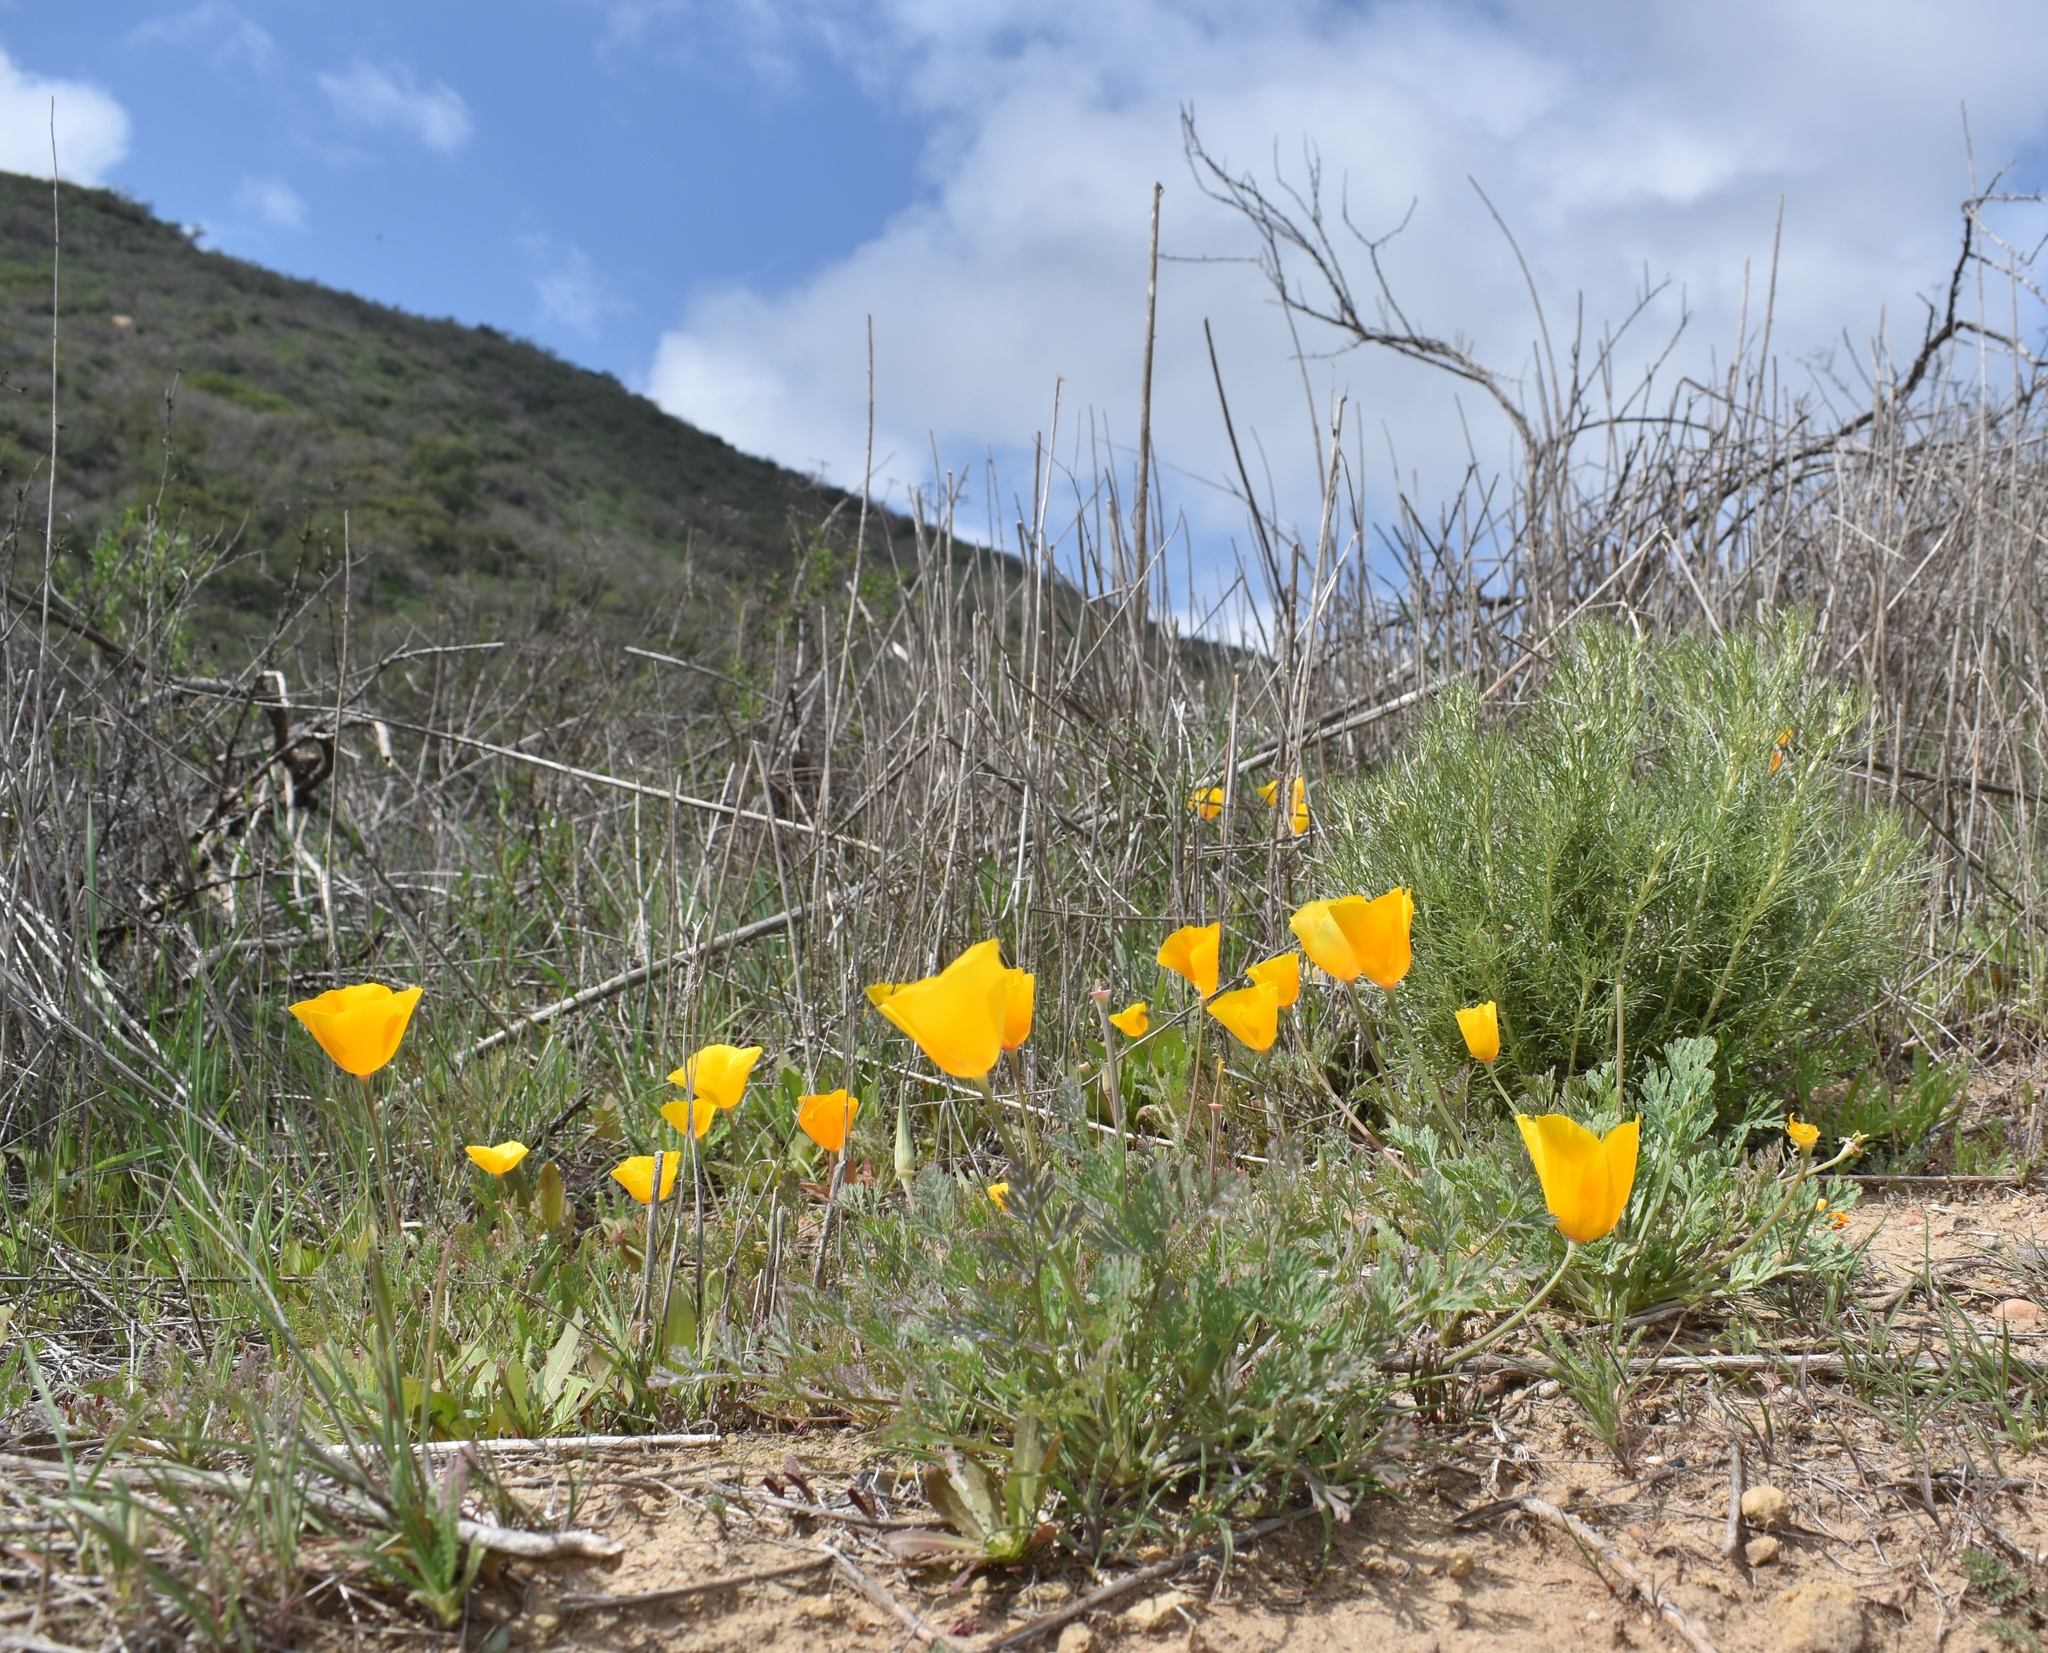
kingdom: Plantae
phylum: Tracheophyta
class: Magnoliopsida
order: Ranunculales
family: Papaveraceae
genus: Eschscholzia
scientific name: Eschscholzia californica
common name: California poppy
